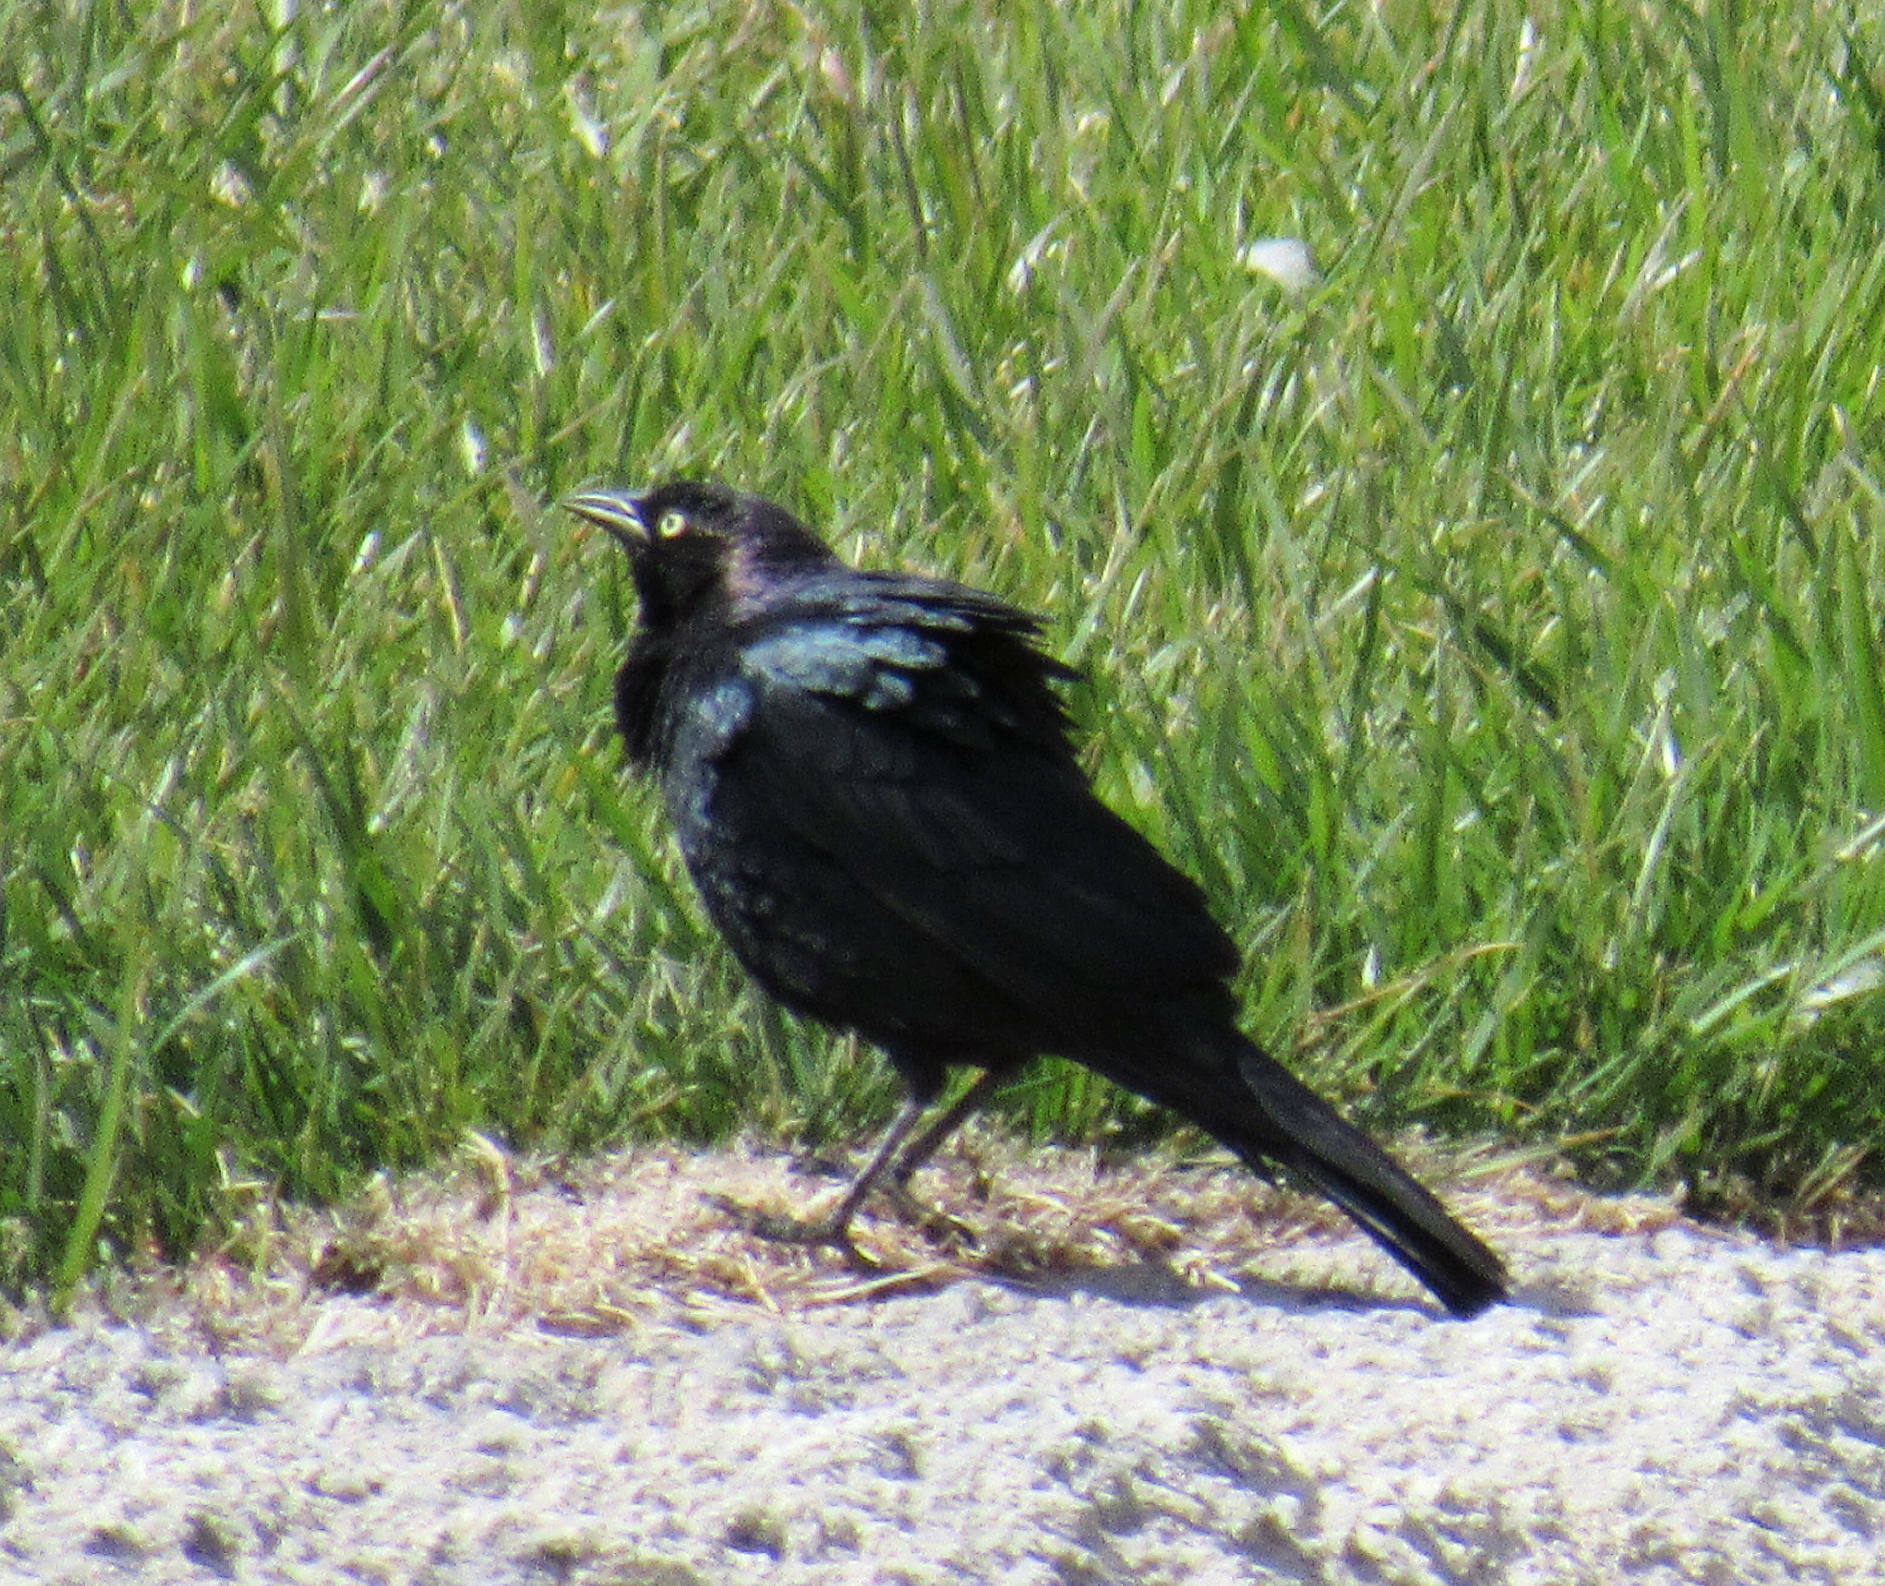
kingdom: Animalia
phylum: Chordata
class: Aves
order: Passeriformes
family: Icteridae
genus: Euphagus
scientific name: Euphagus cyanocephalus
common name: Brewer's blackbird
